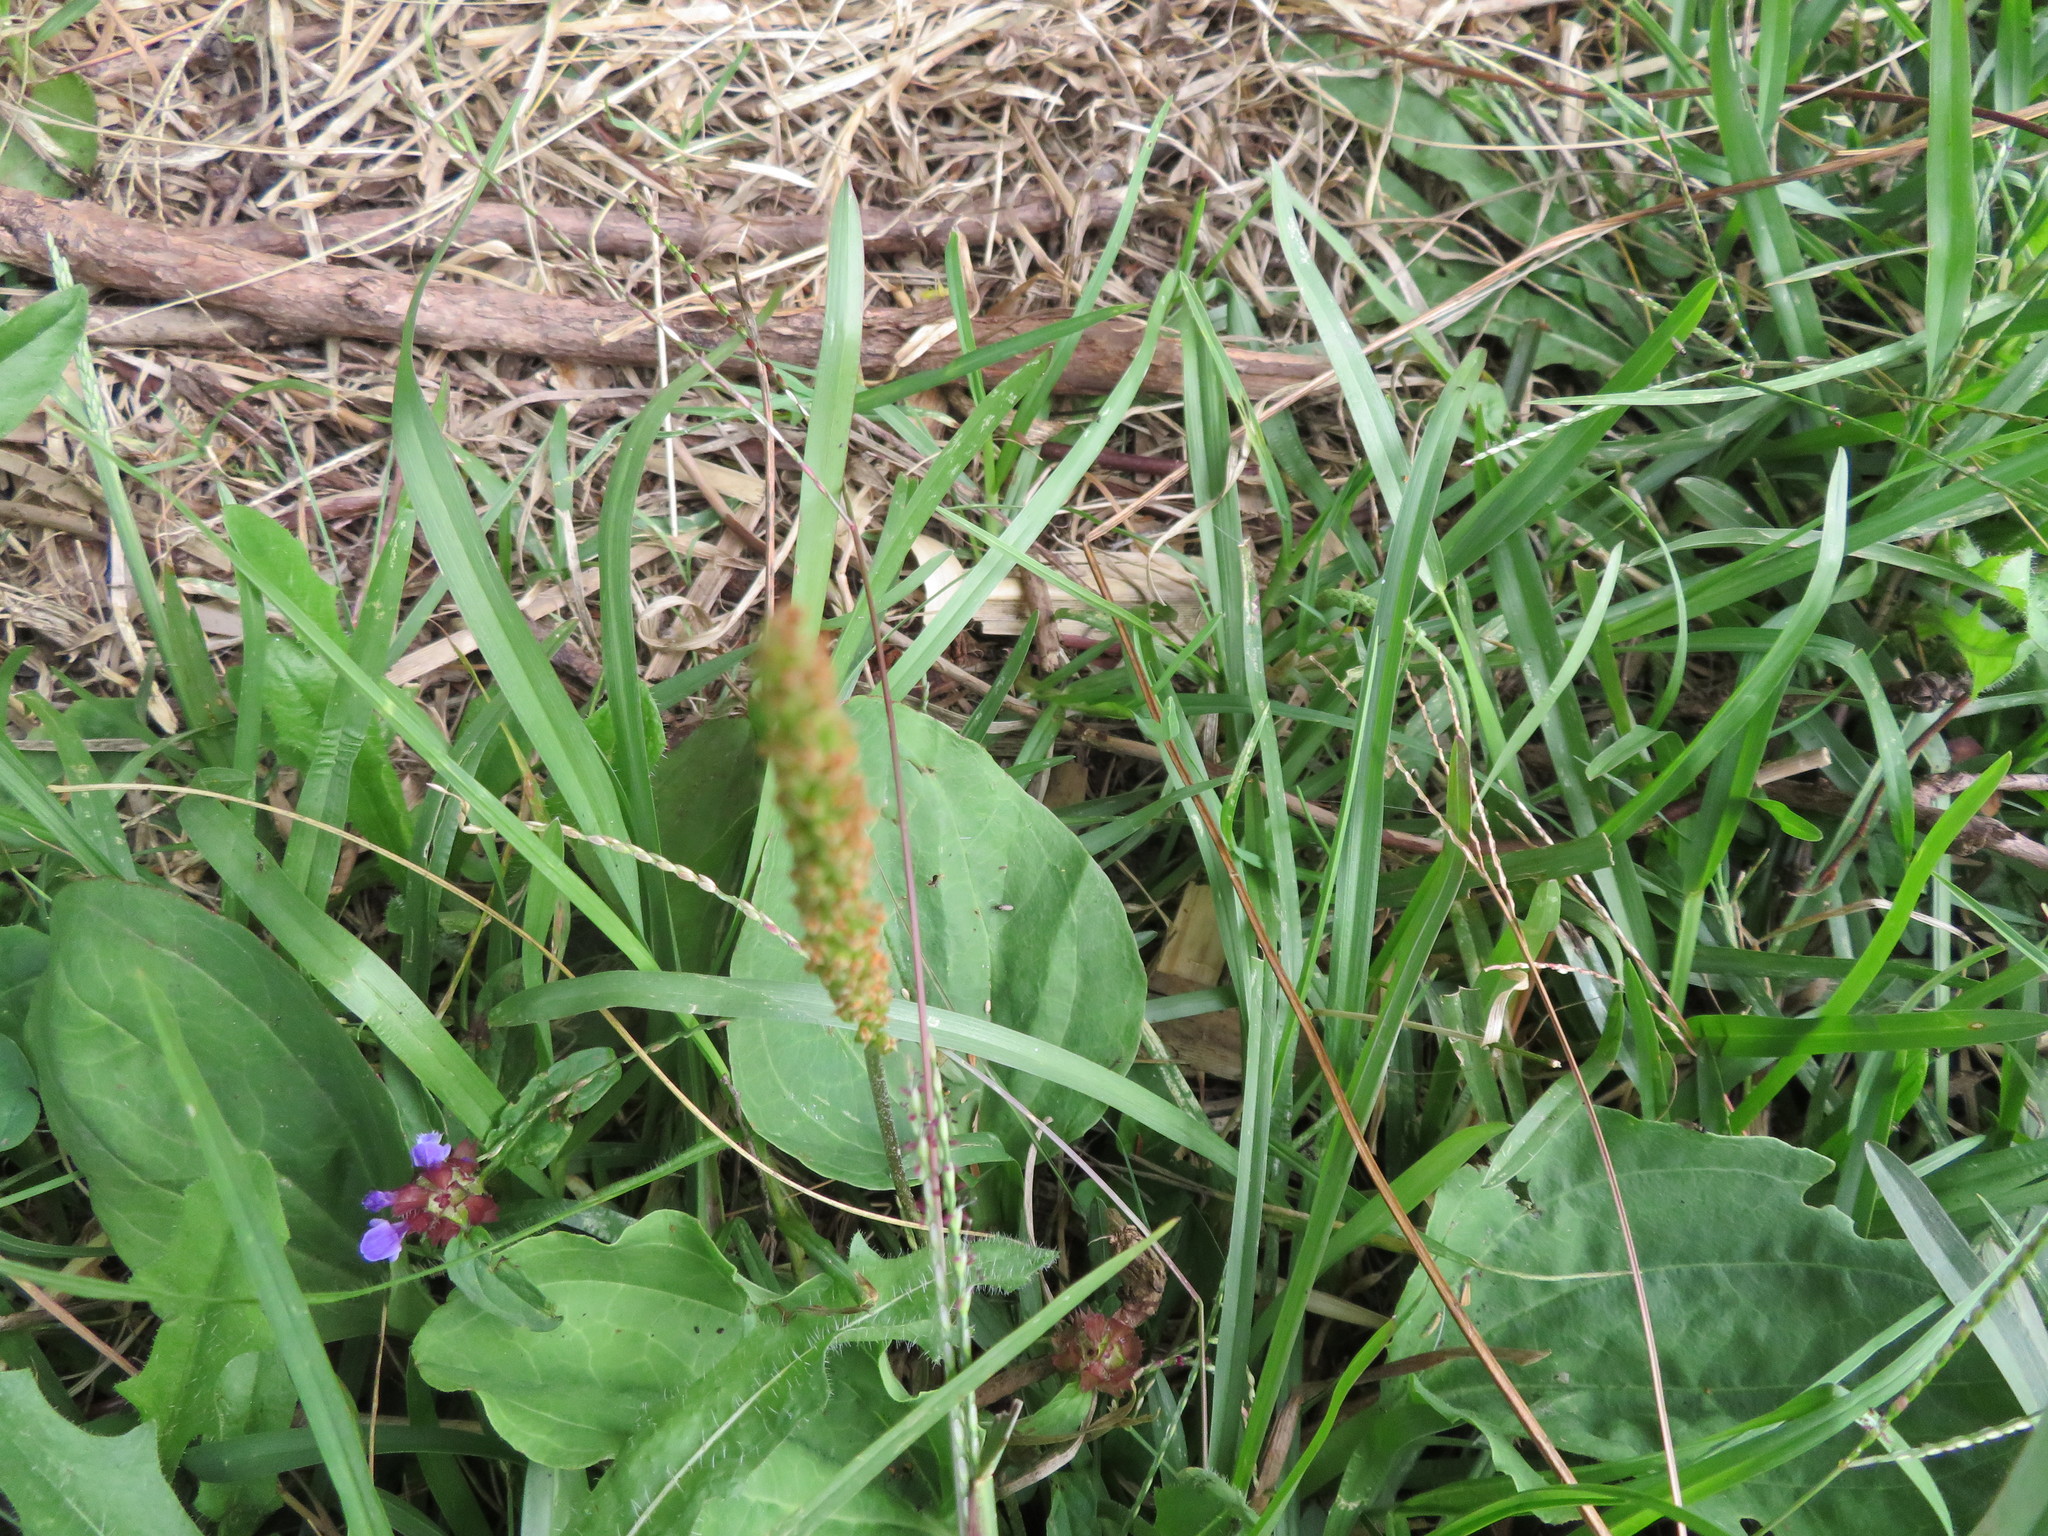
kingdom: Plantae
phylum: Tracheophyta
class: Magnoliopsida
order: Lamiales
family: Plantaginaceae
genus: Plantago
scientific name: Plantago major
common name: Common plantain
